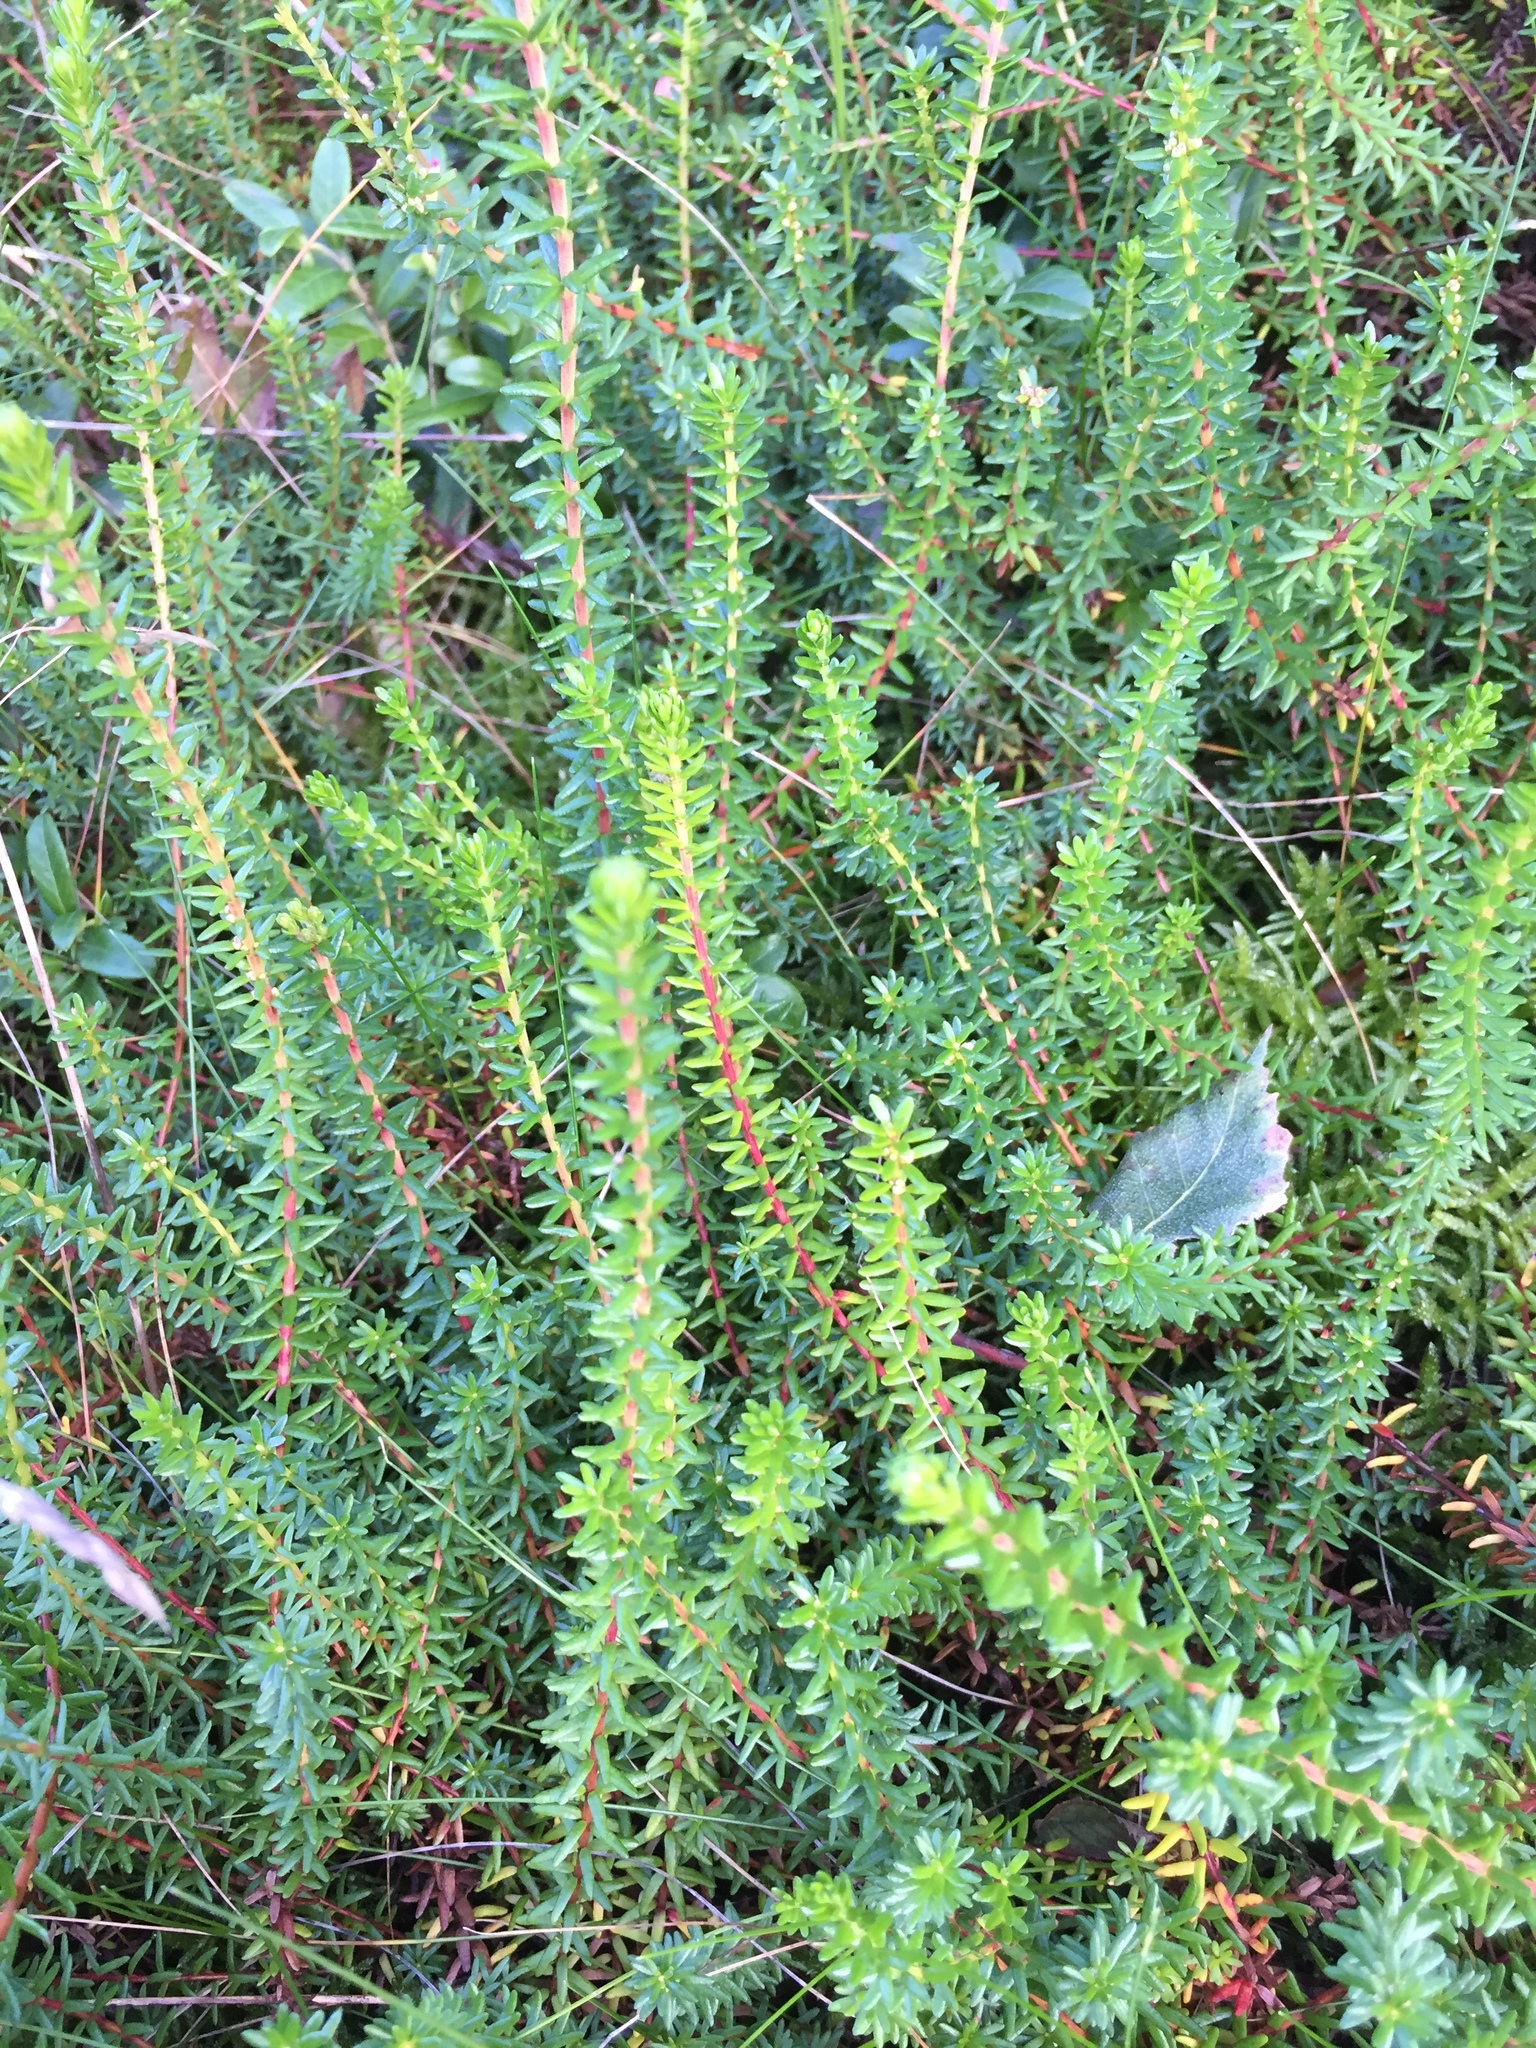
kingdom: Plantae
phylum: Tracheophyta
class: Magnoliopsida
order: Ericales
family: Ericaceae
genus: Empetrum
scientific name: Empetrum nigrum
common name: Black crowberry
